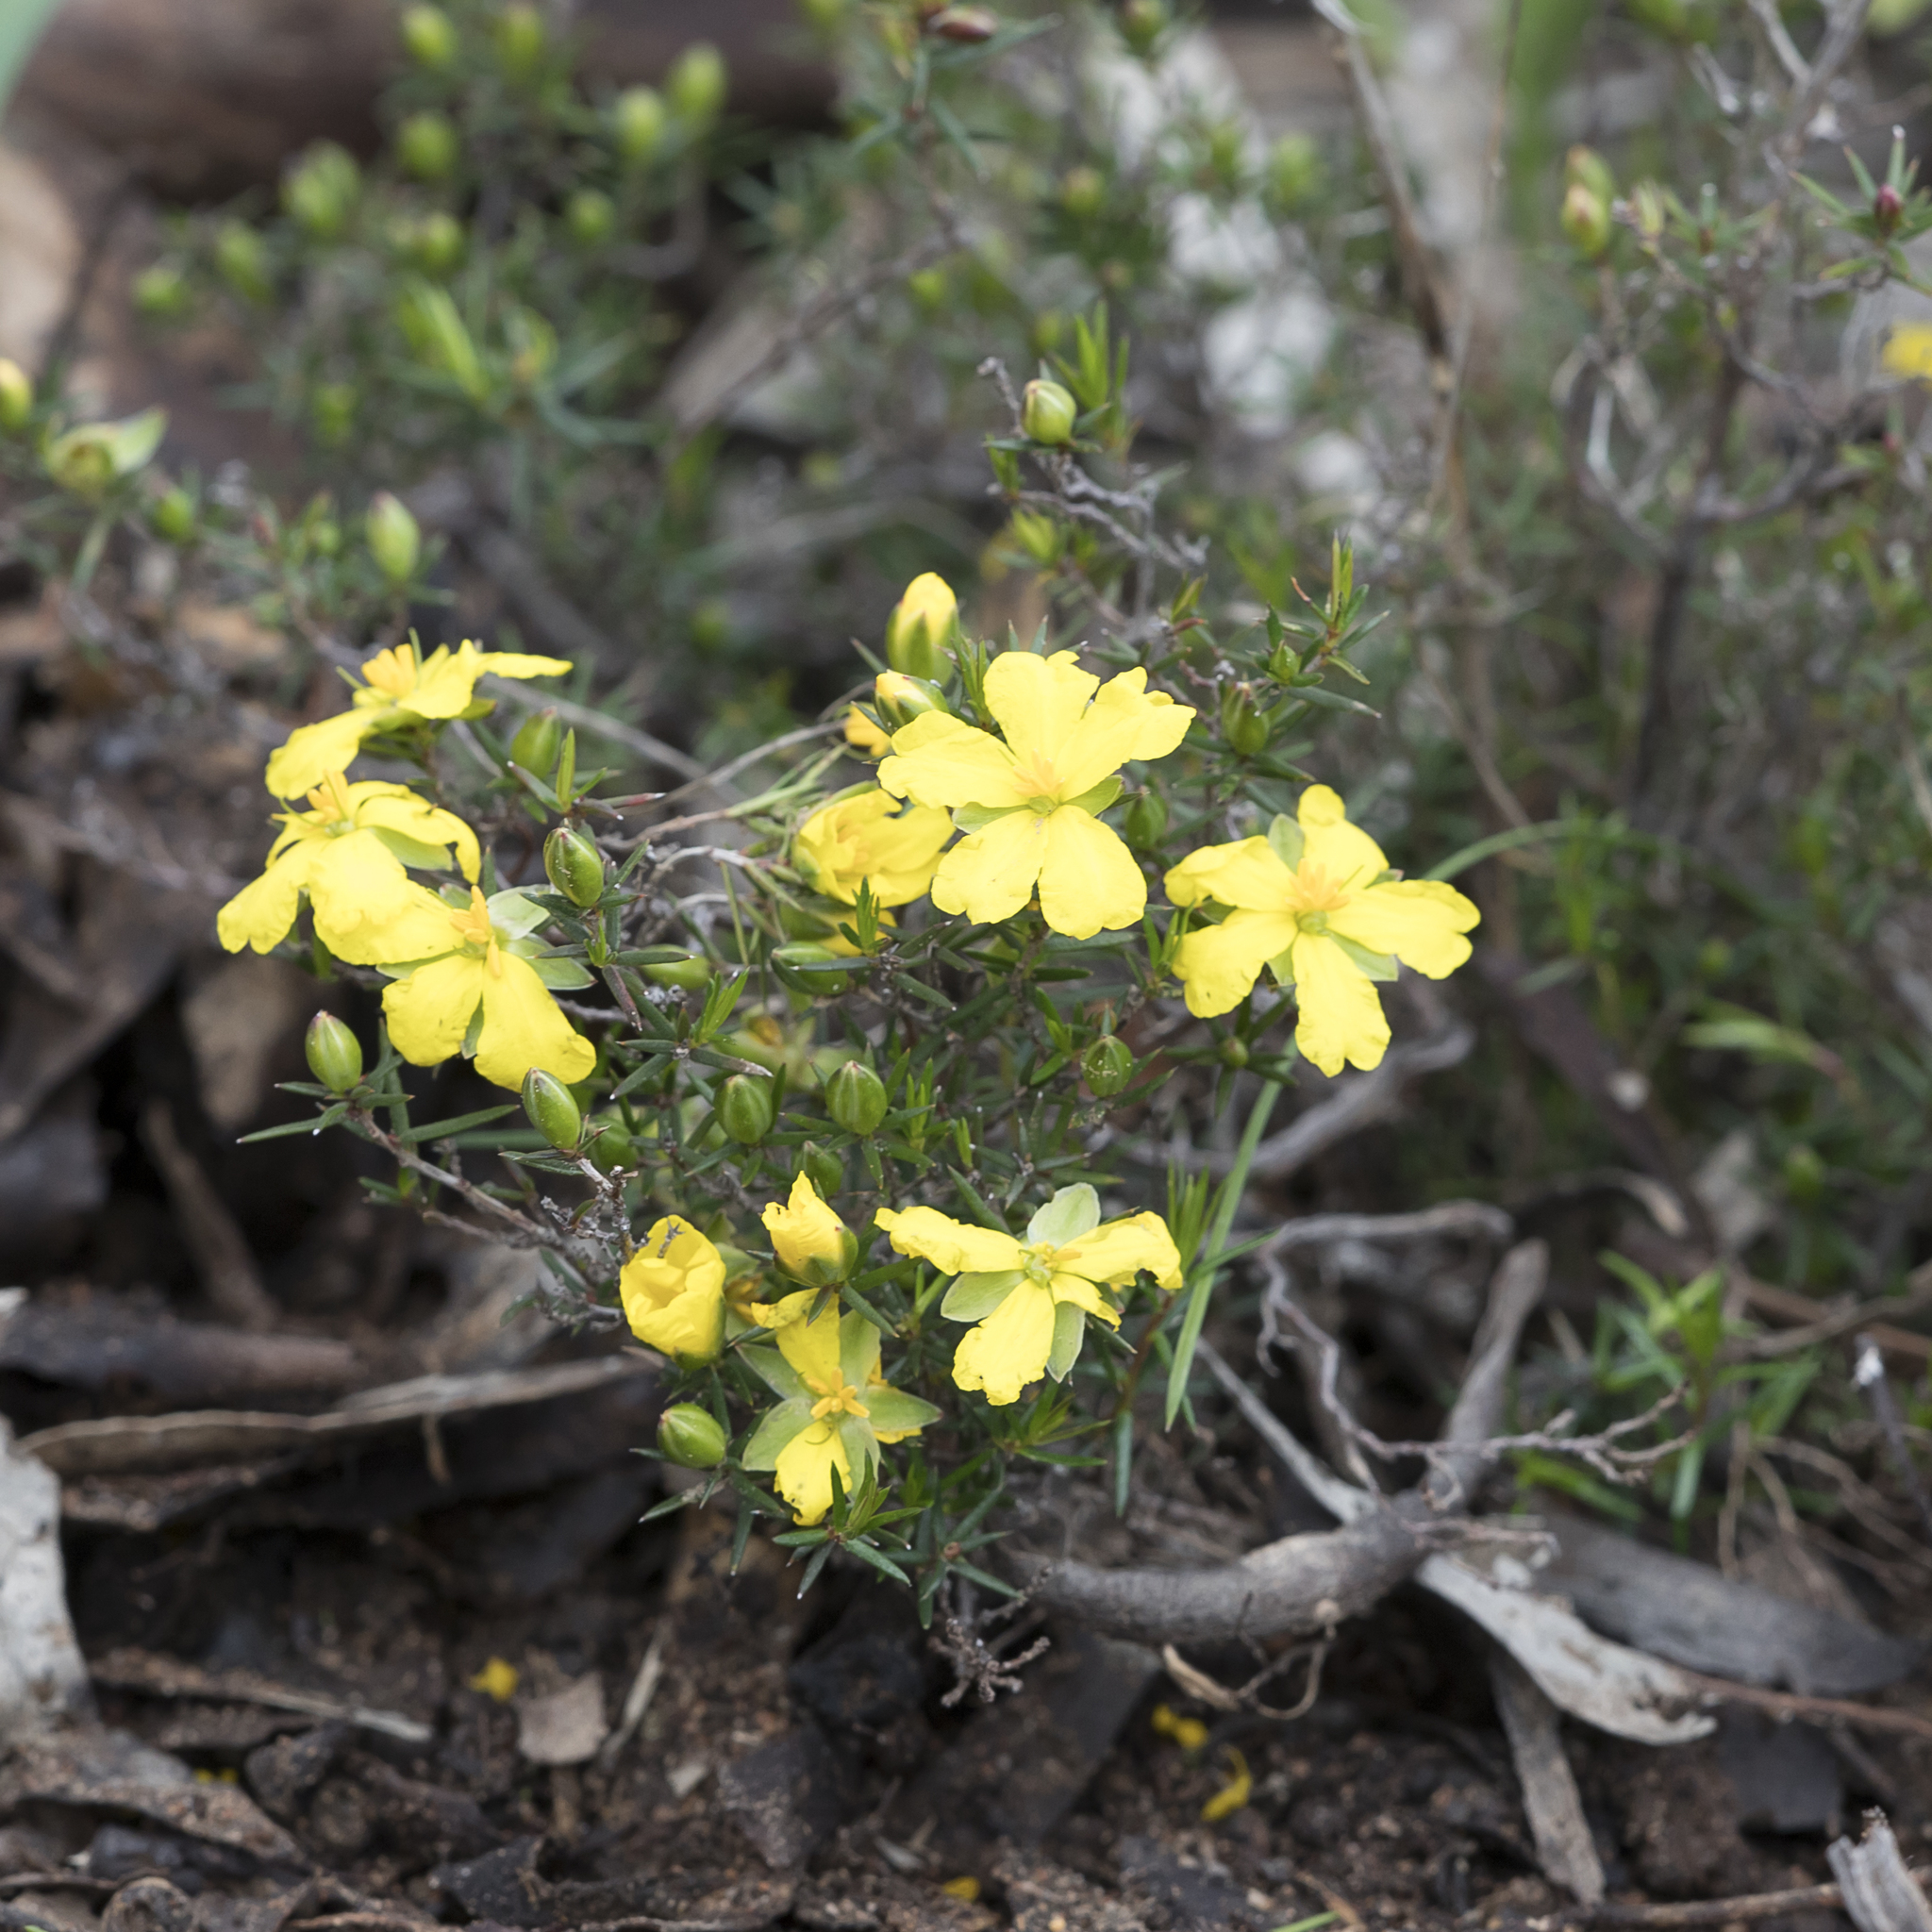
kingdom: Plantae
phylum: Tracheophyta
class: Magnoliopsida
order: Dilleniales
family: Dilleniaceae
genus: Hibbertia
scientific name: Hibbertia exutiacies
